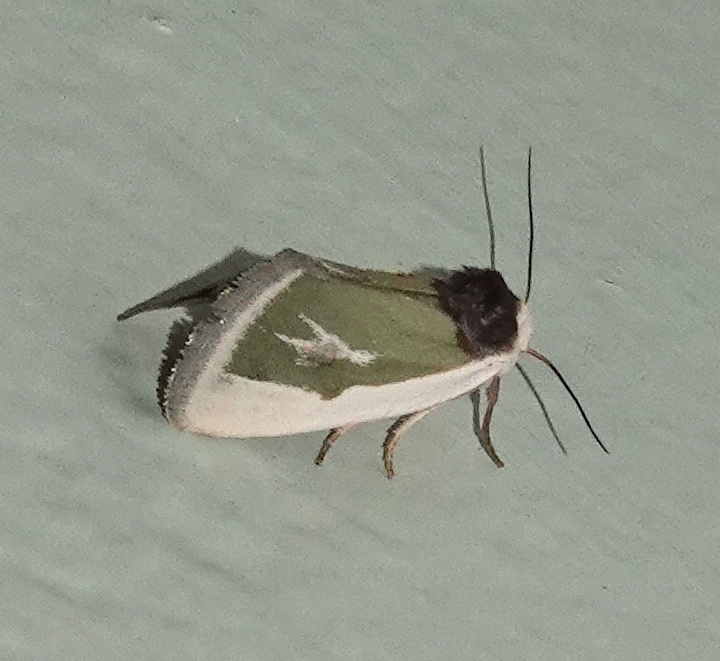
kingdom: Animalia
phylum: Arthropoda
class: Insecta
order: Lepidoptera
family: Noctuidae
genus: Neumoegenia
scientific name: Neumoegenia poetica
